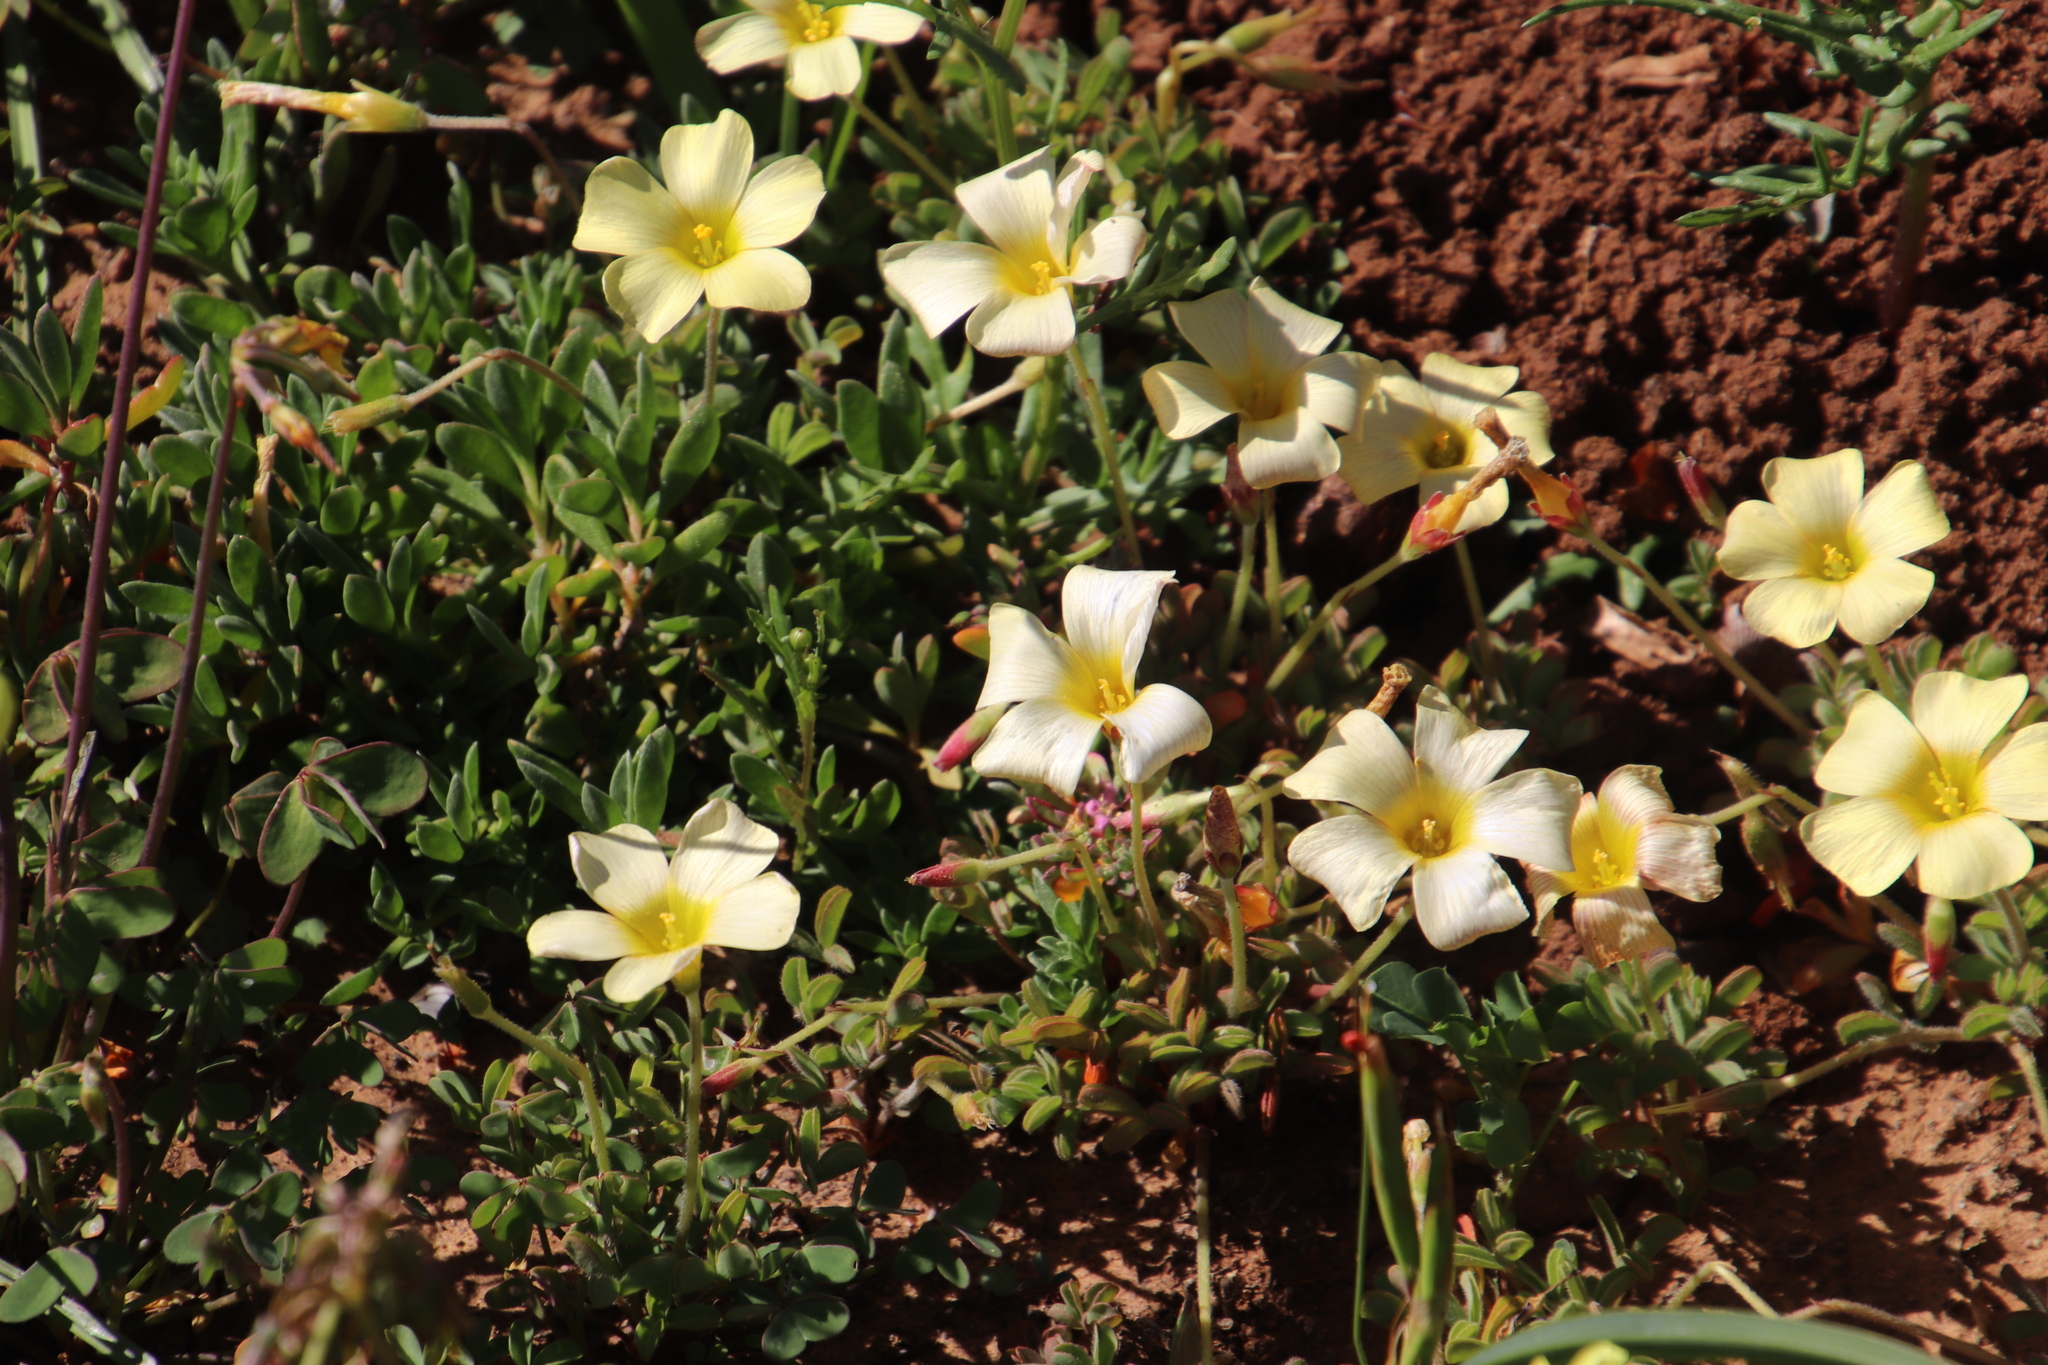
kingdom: Plantae
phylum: Tracheophyta
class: Magnoliopsida
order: Oxalidales
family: Oxalidaceae
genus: Oxalis
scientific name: Oxalis obtusa
